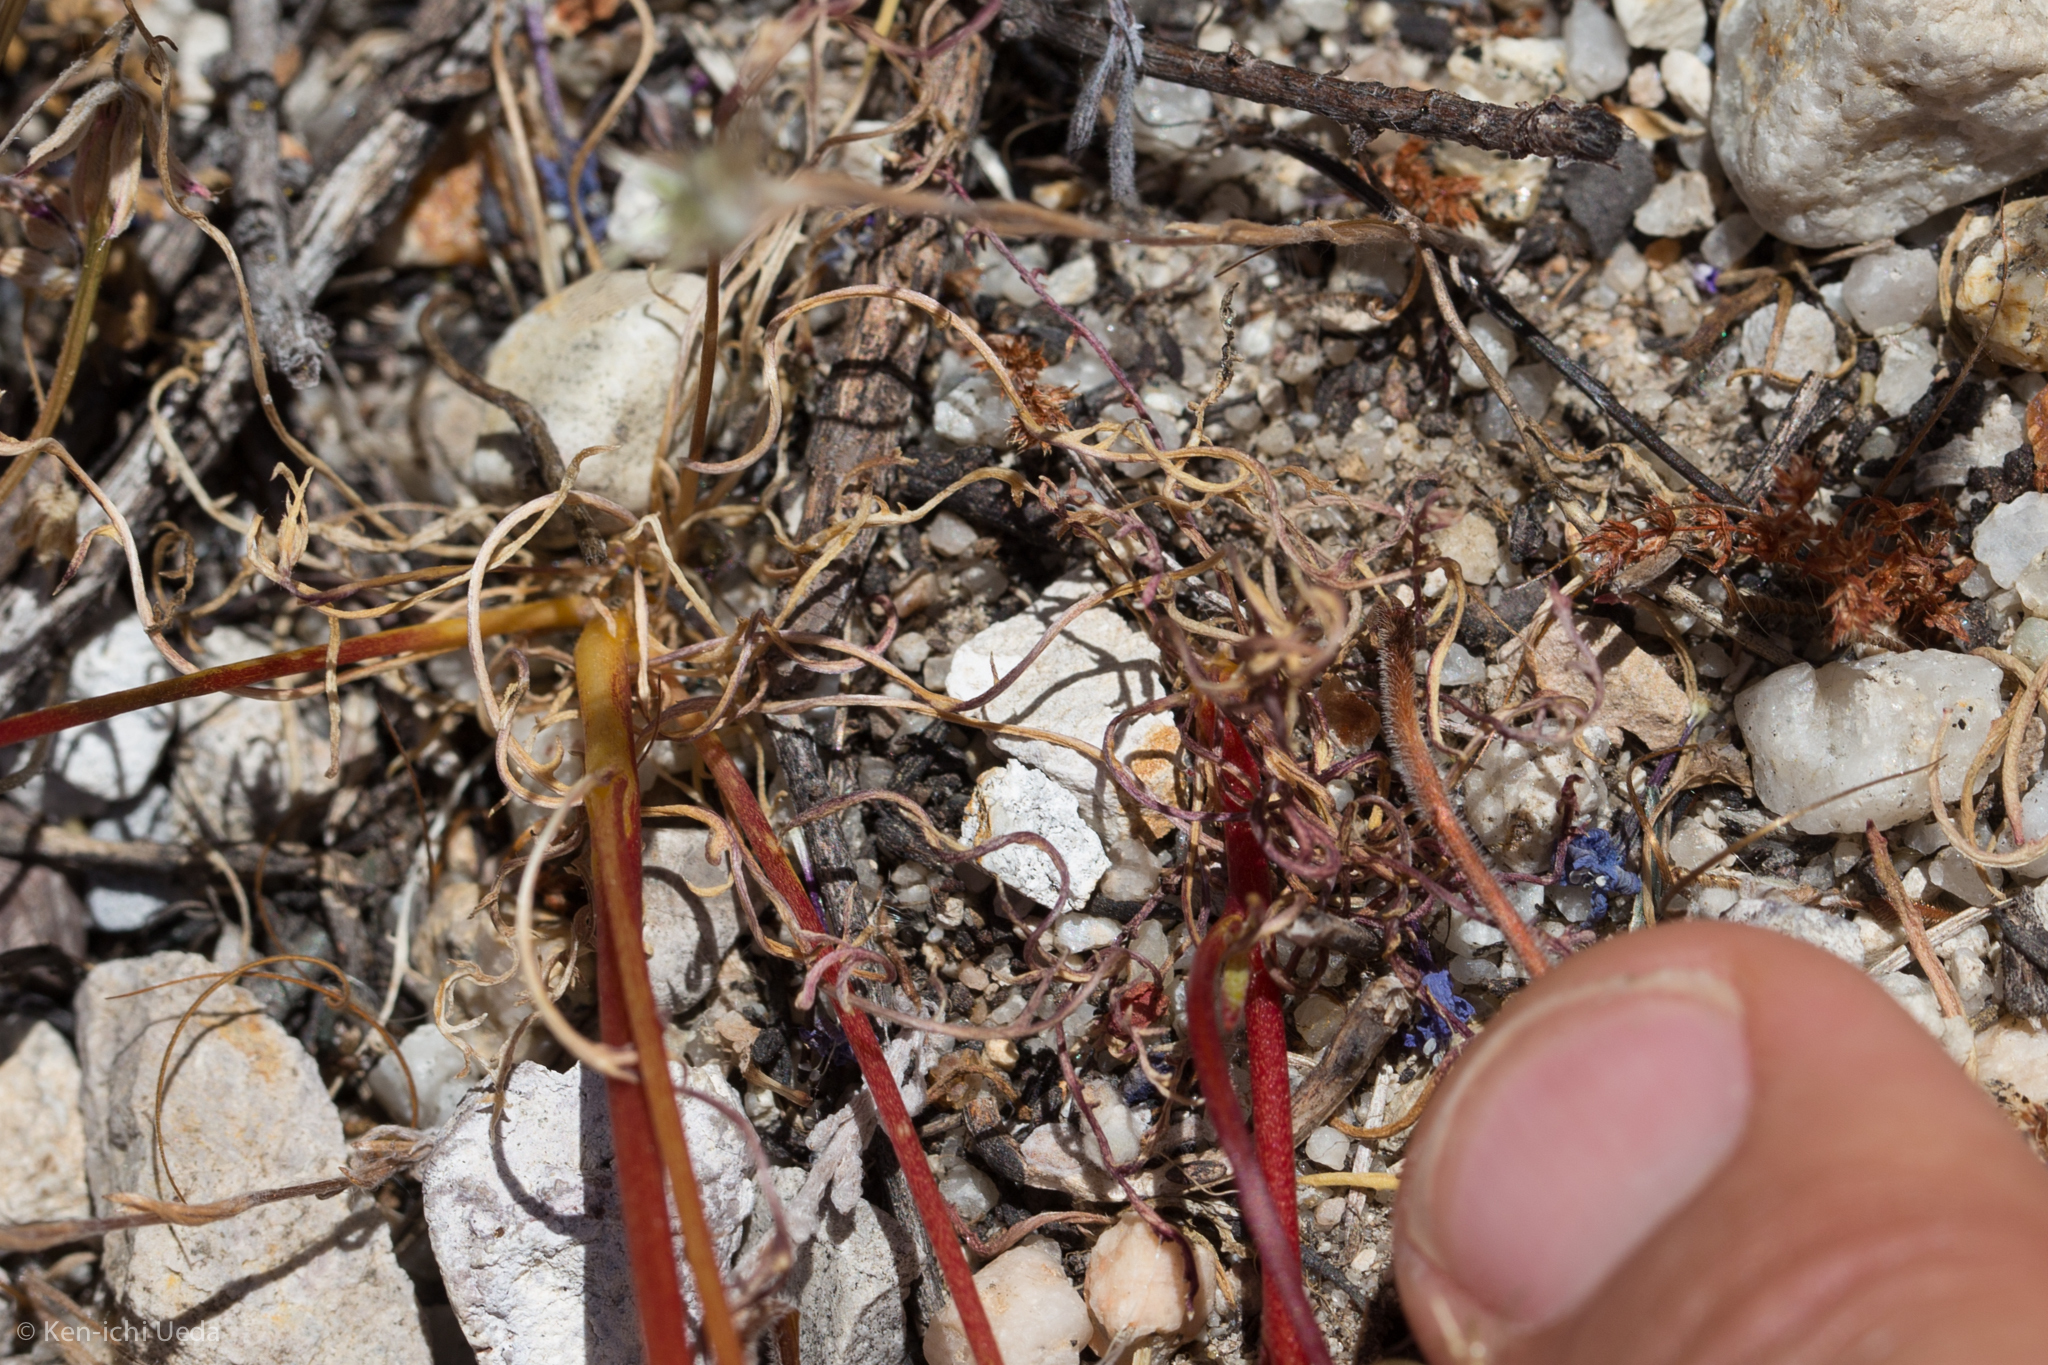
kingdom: Plantae
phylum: Tracheophyta
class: Magnoliopsida
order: Ericales
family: Polemoniaceae
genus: Gilia
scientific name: Gilia tenuiflora
